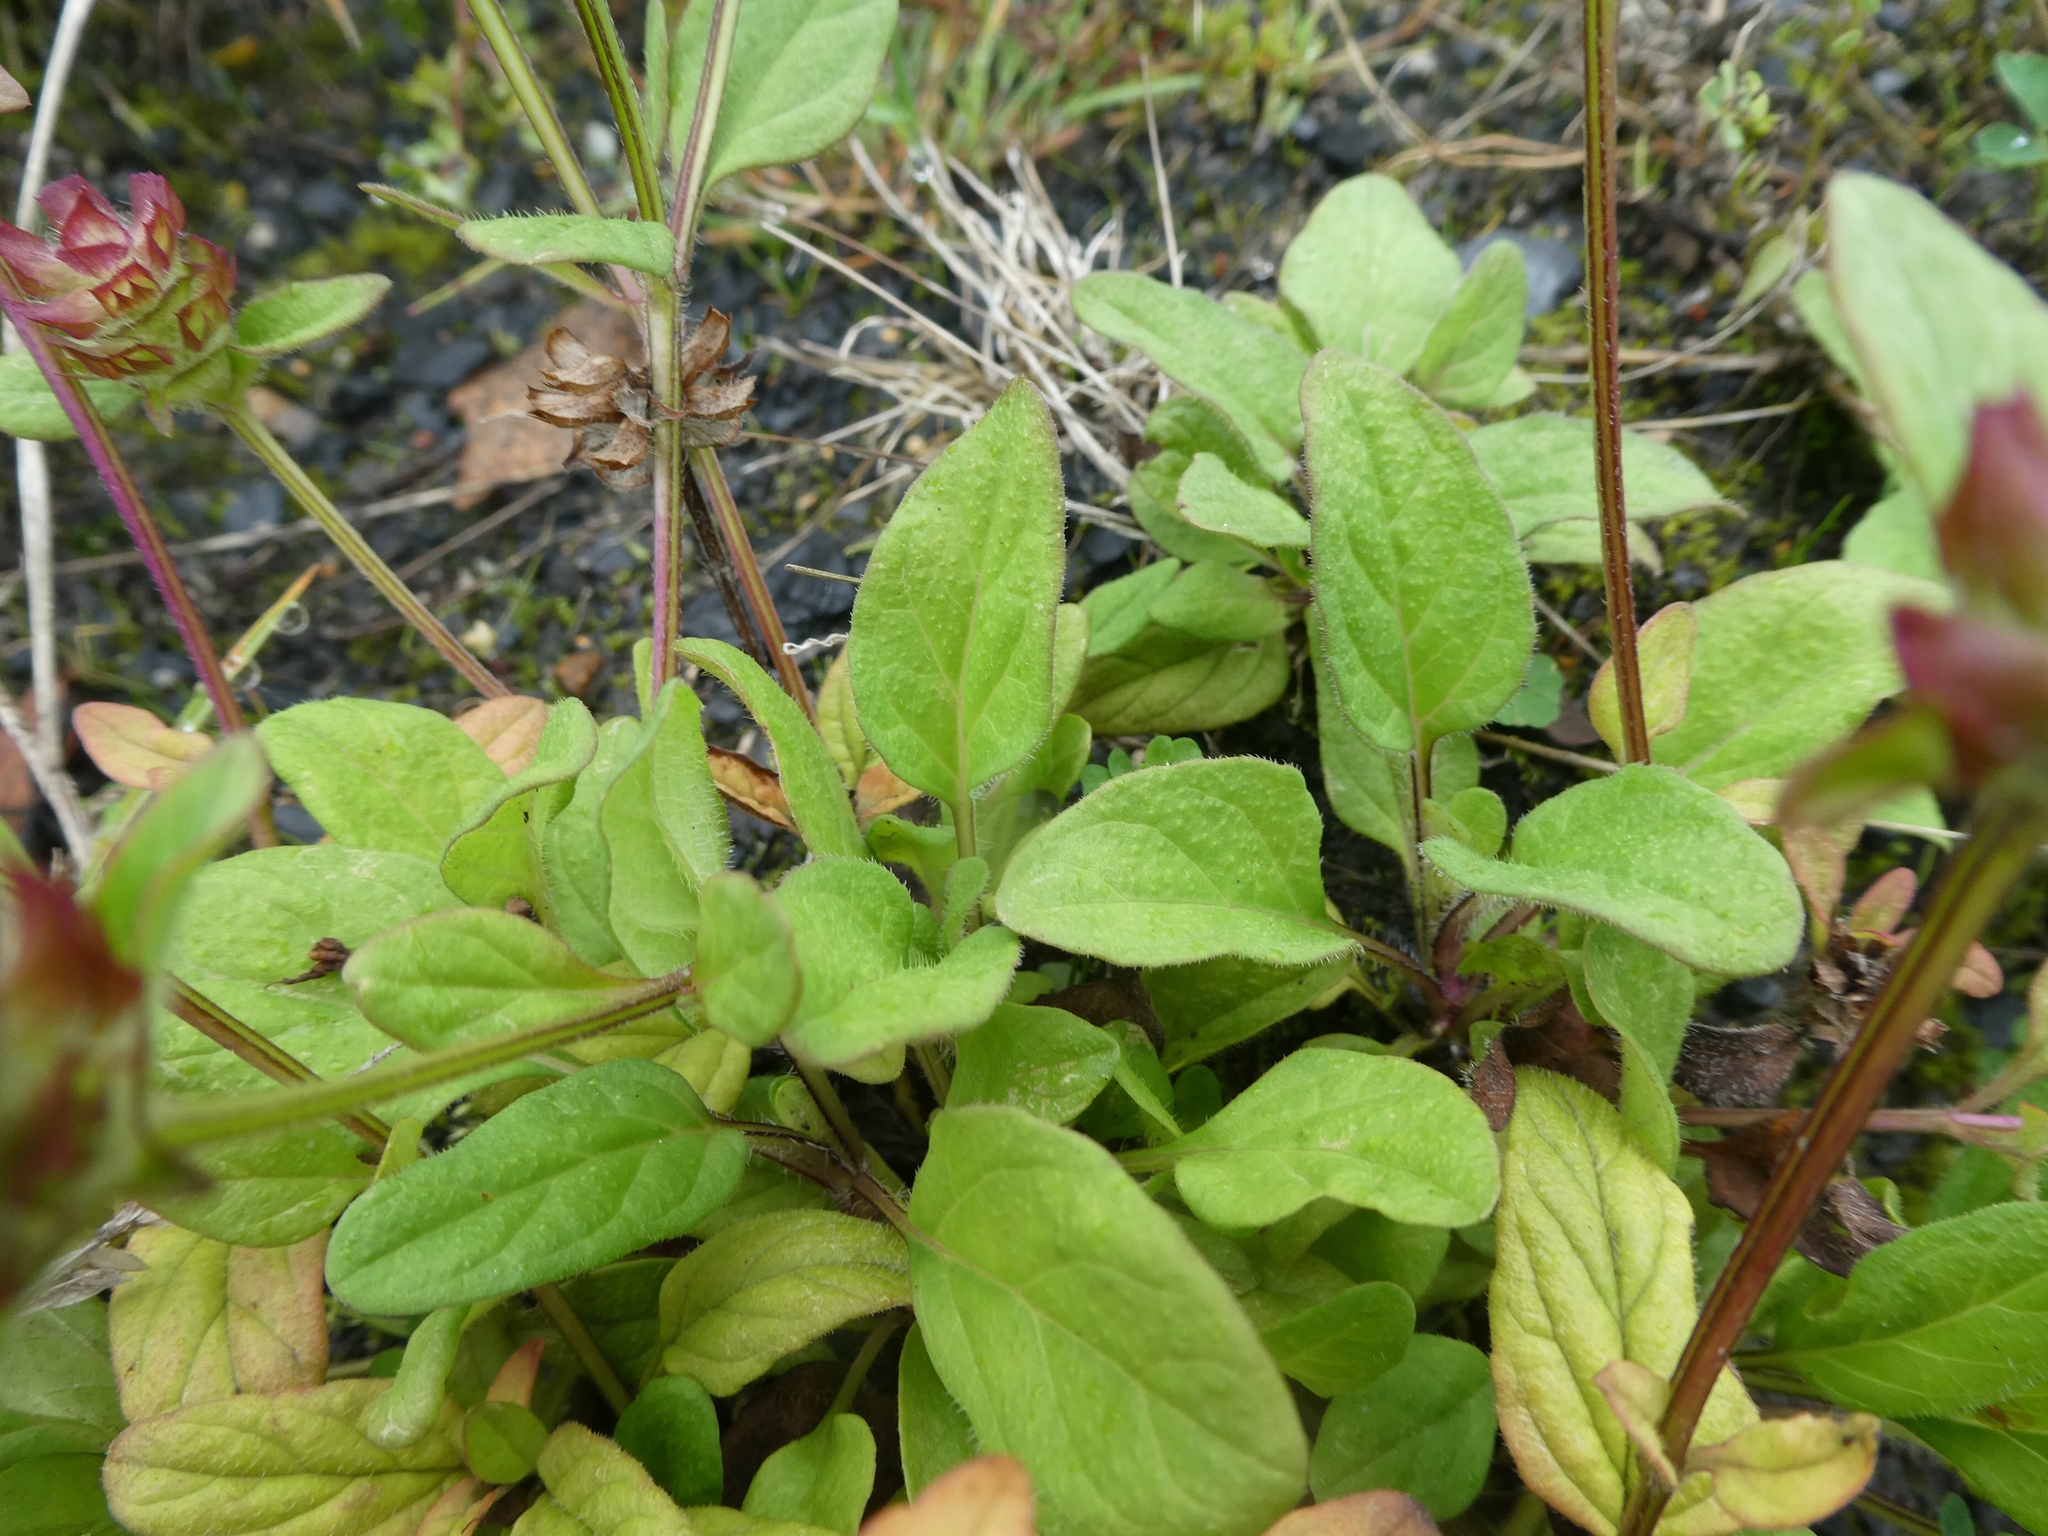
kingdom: Plantae
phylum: Tracheophyta
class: Magnoliopsida
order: Lamiales
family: Lamiaceae
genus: Prunella
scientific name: Prunella vulgaris
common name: Heal-all
